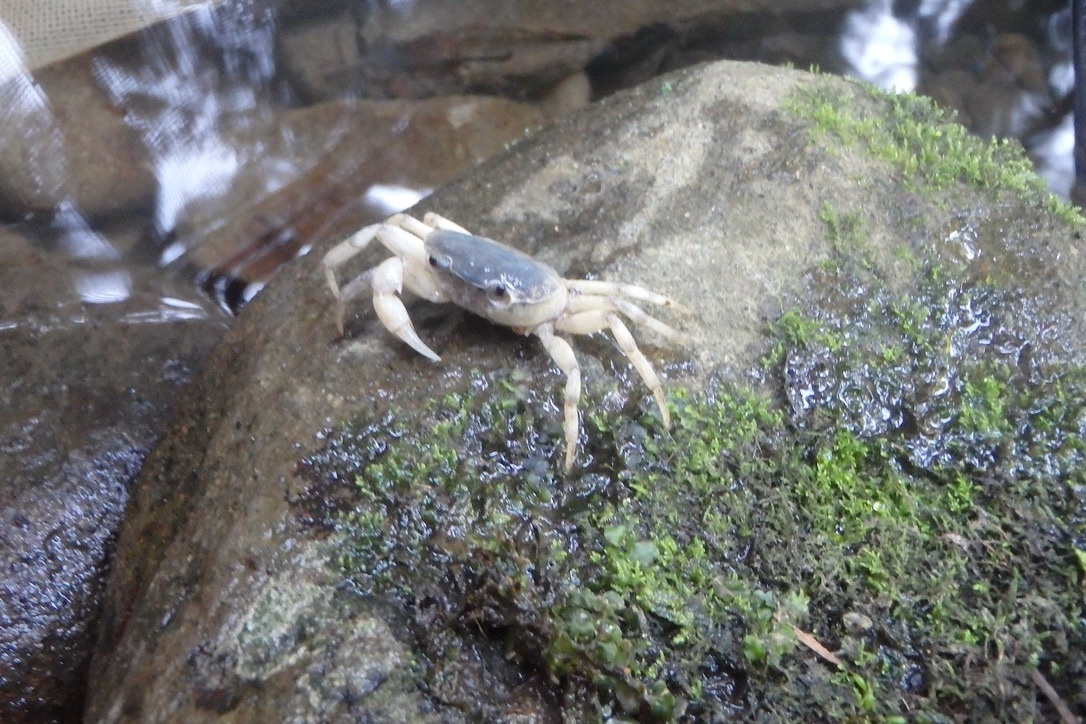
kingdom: Animalia
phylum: Arthropoda
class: Malacostraca
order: Decapoda
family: Potamidae
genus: Geothelphusa
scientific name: Geothelphusa dehaani
